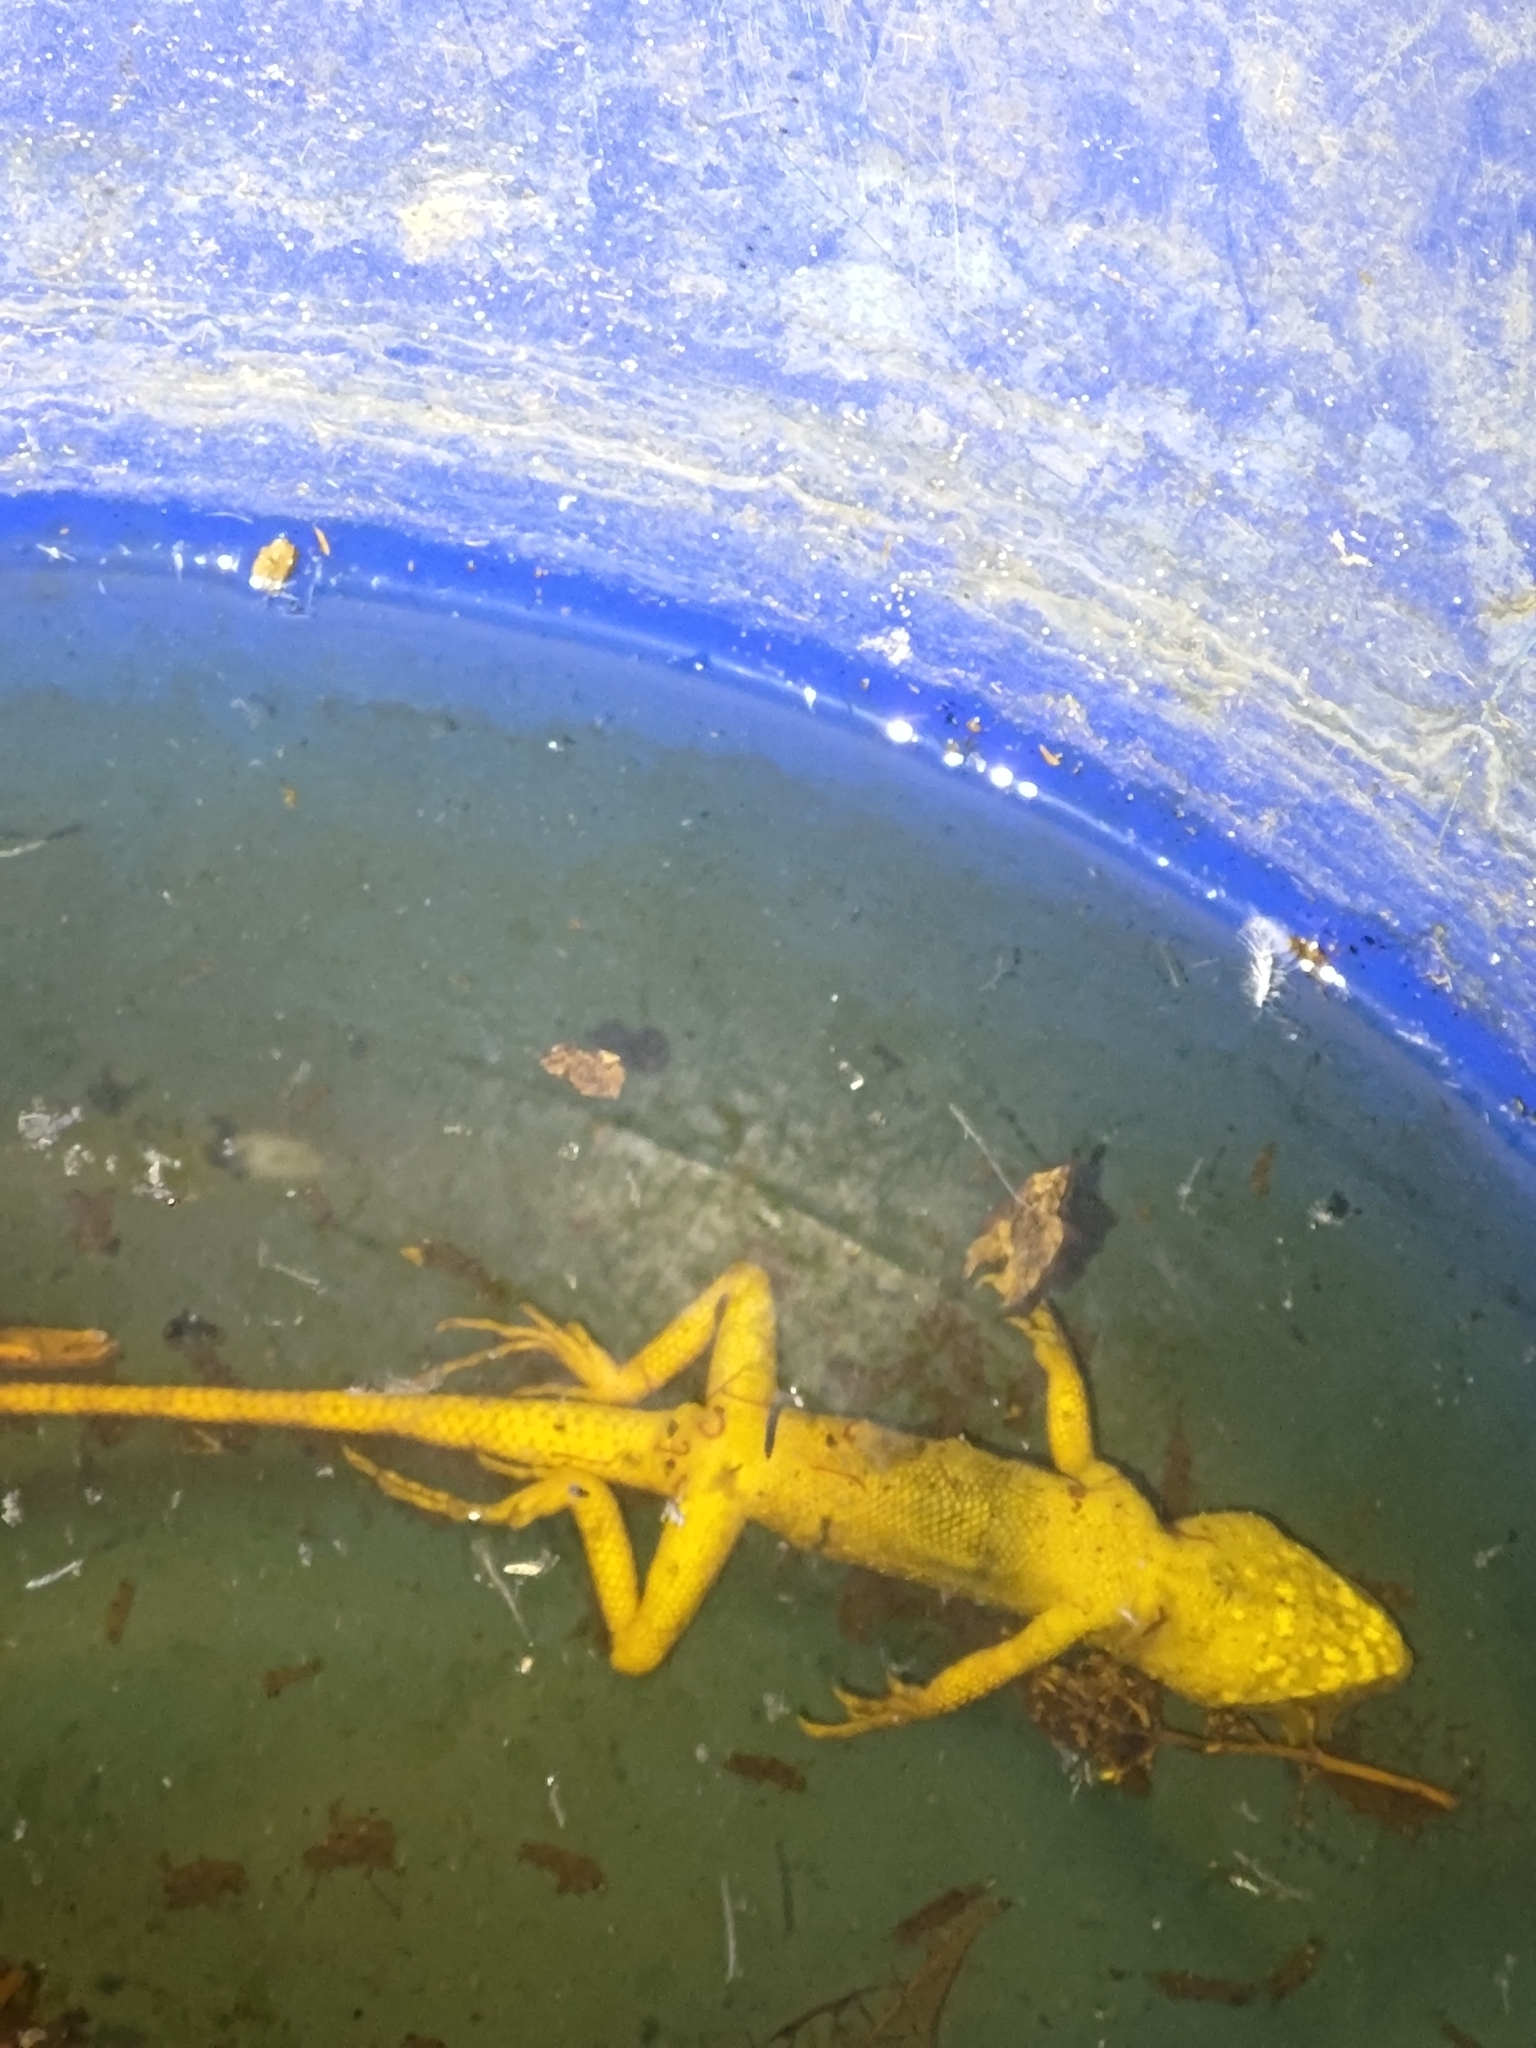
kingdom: Animalia
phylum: Chordata
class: Squamata
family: Agamidae
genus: Diploderma
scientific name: Diploderma swinhonis
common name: Taiwan japalure
